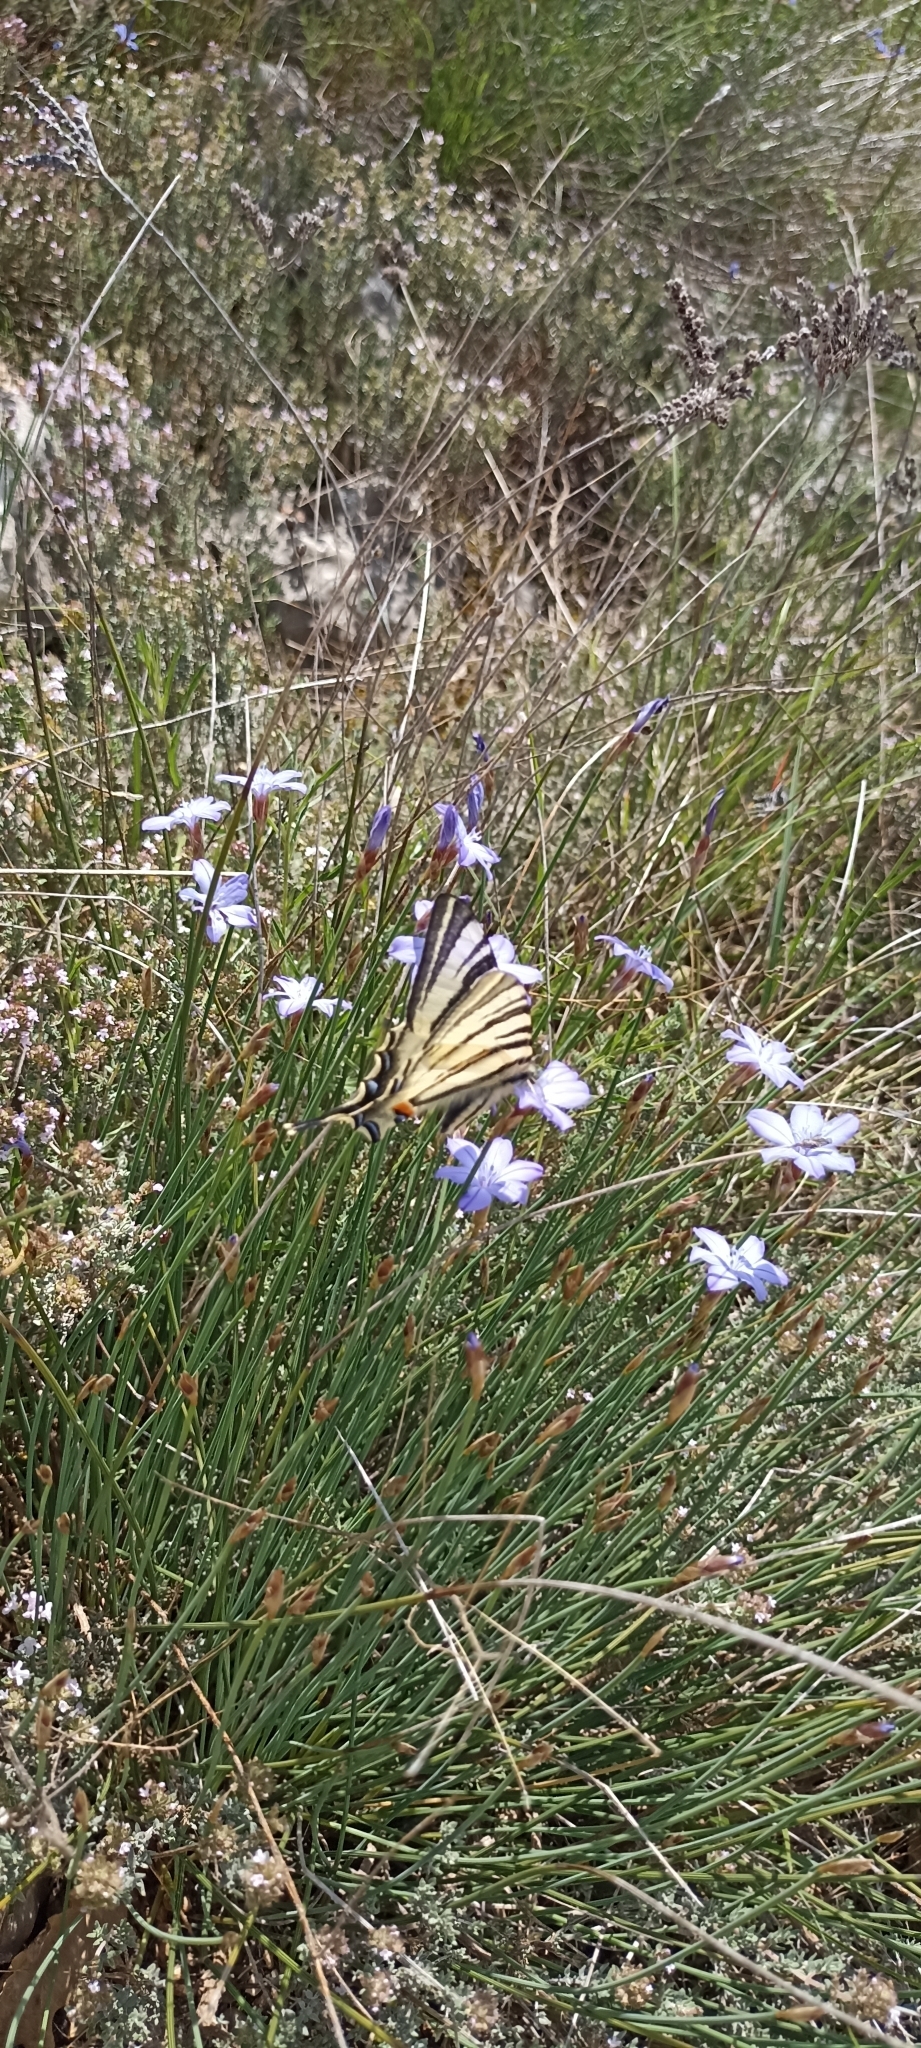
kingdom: Animalia
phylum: Arthropoda
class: Insecta
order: Lepidoptera
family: Papilionidae
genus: Iphiclides
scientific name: Iphiclides podalirius
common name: Scarce swallowtail
